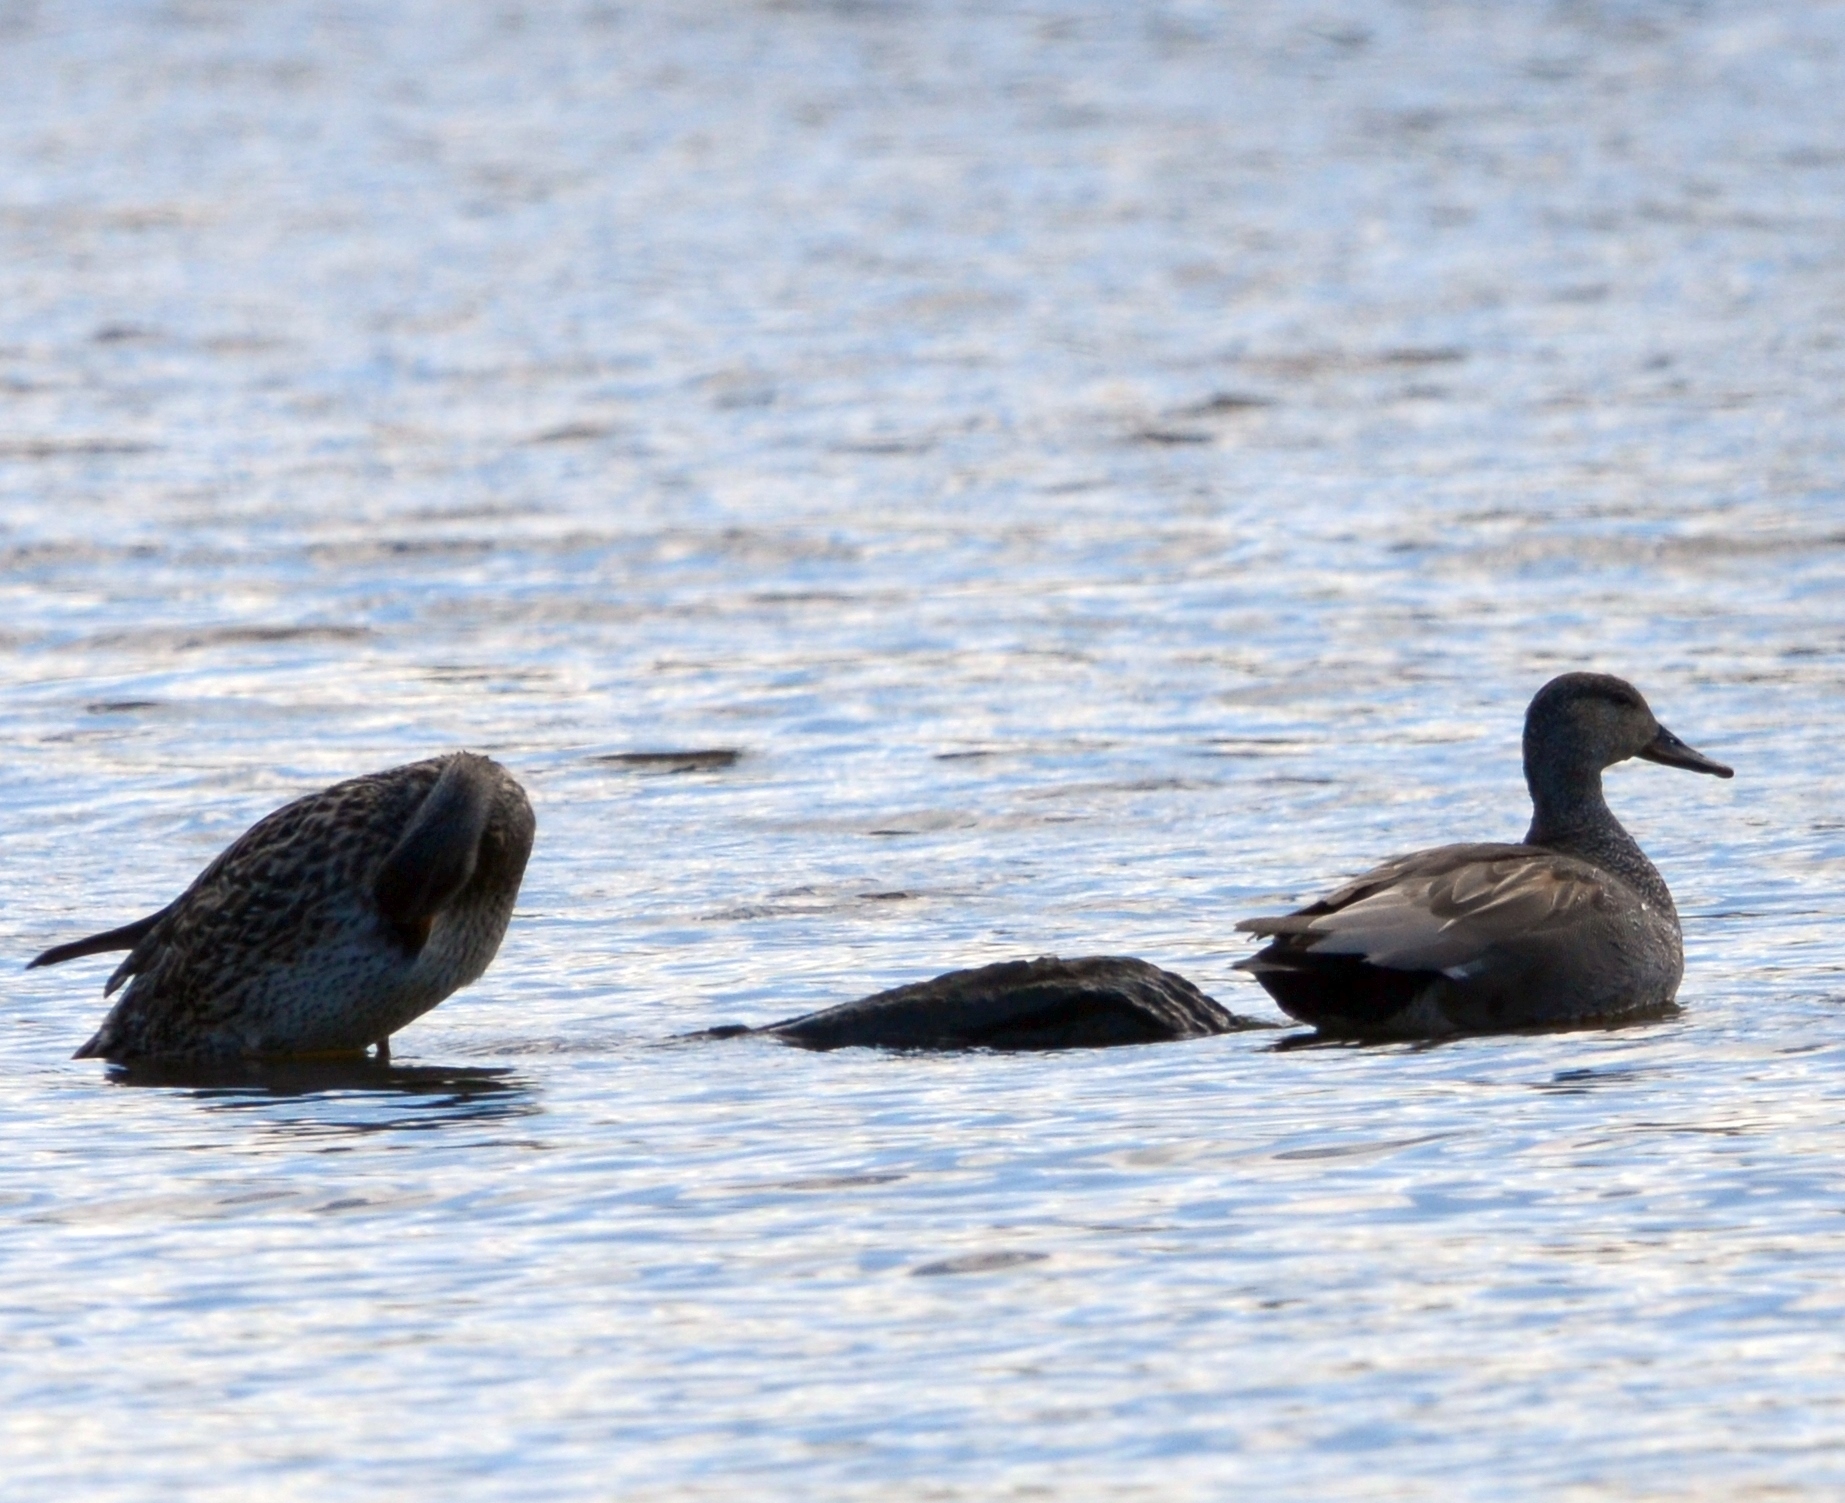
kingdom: Animalia
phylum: Chordata
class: Aves
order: Anseriformes
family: Anatidae
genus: Mareca
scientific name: Mareca strepera
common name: Gadwall
